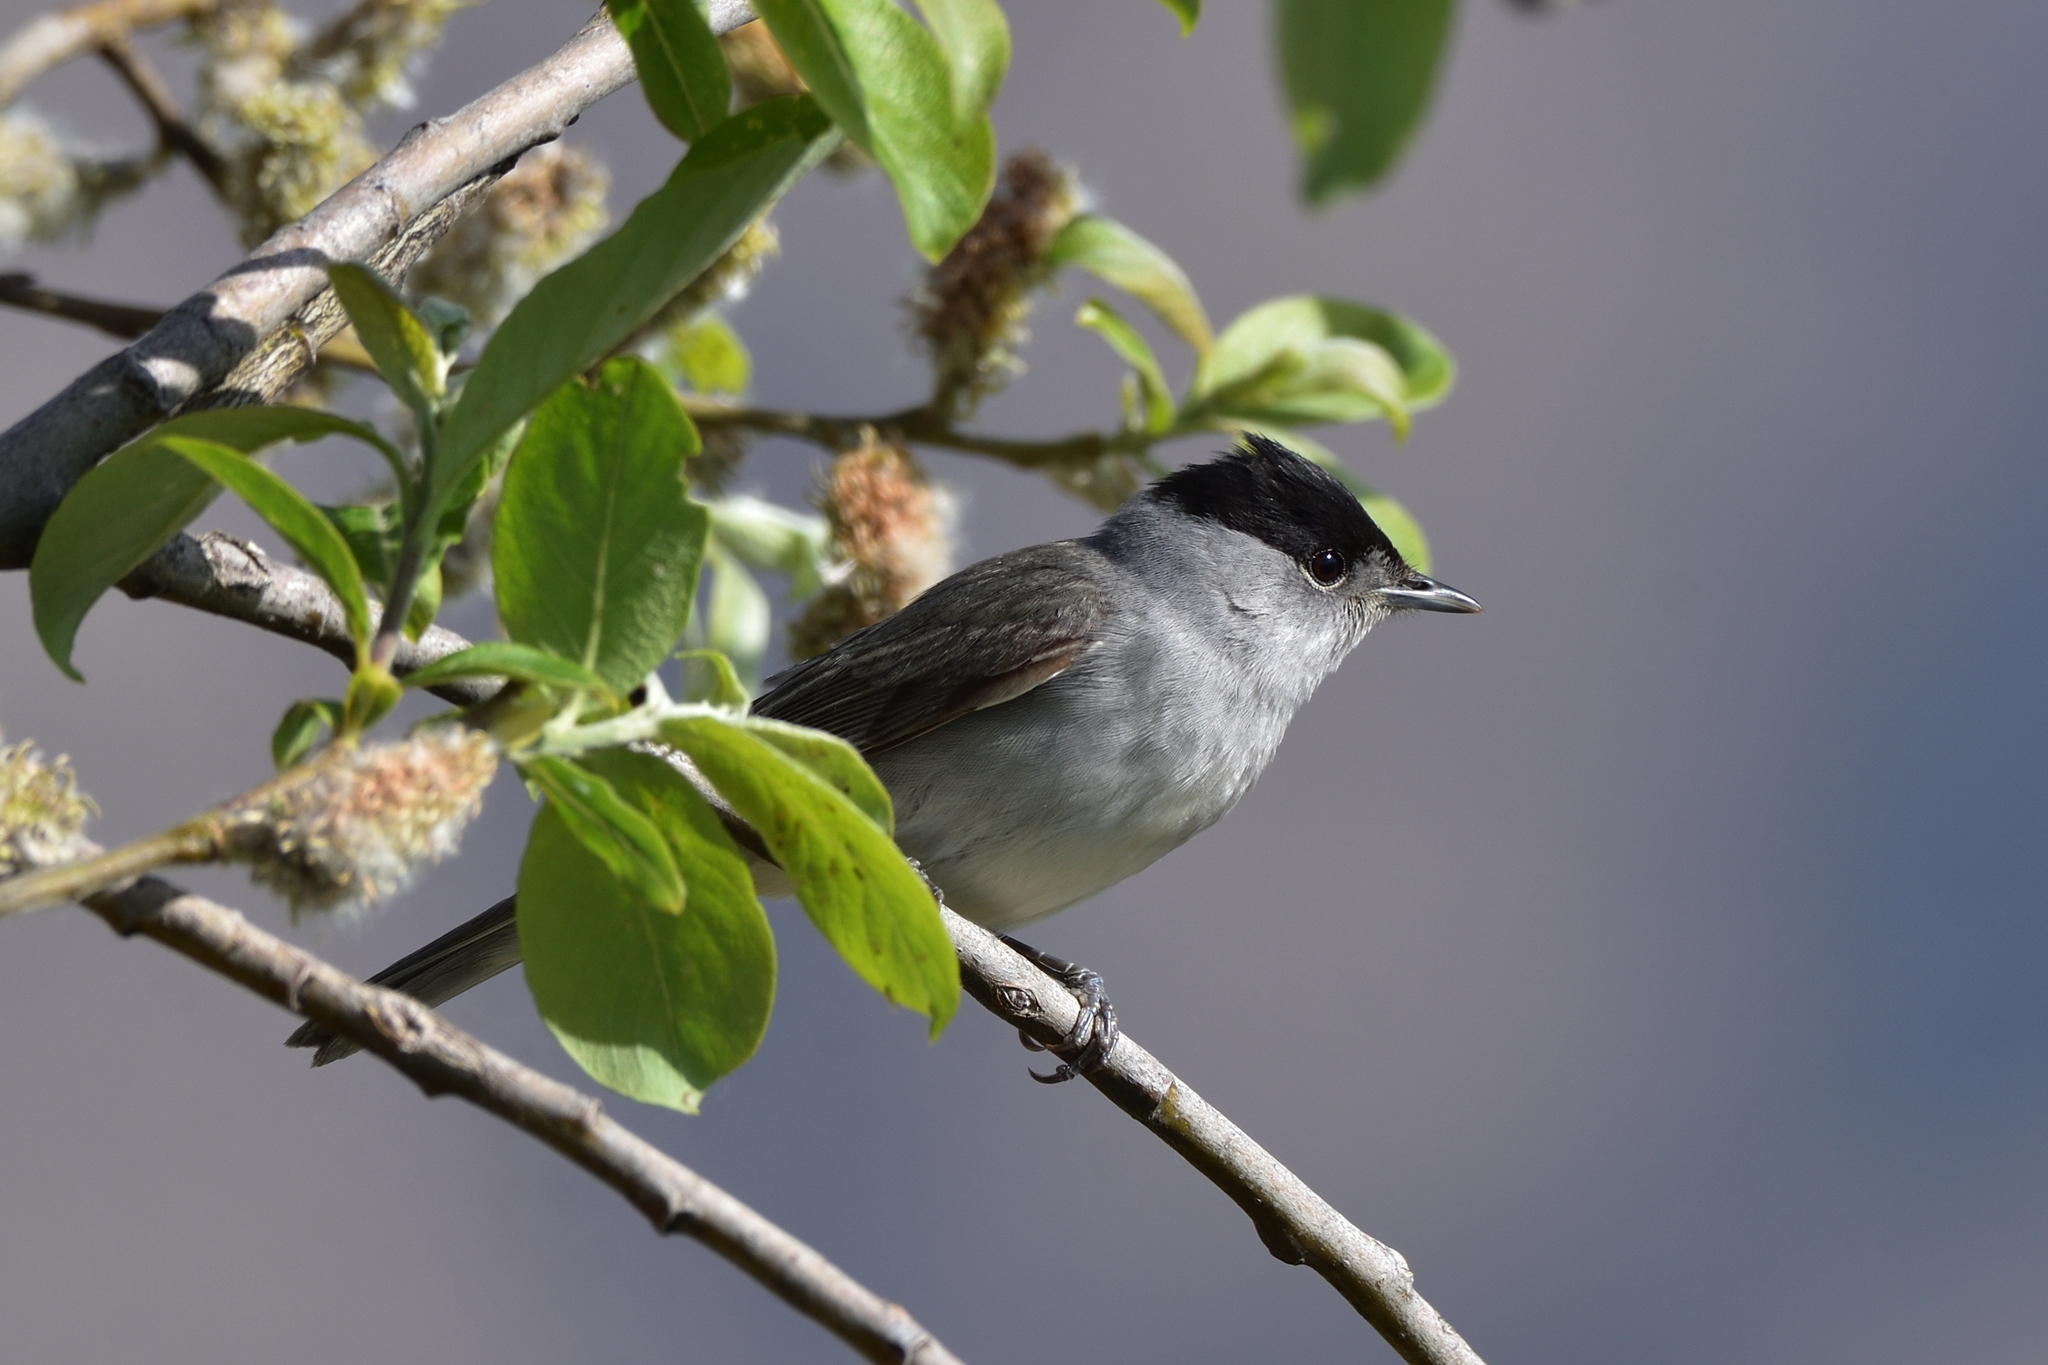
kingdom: Animalia
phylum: Chordata
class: Aves
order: Passeriformes
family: Sylviidae
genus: Sylvia
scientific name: Sylvia atricapilla
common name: Eurasian blackcap
